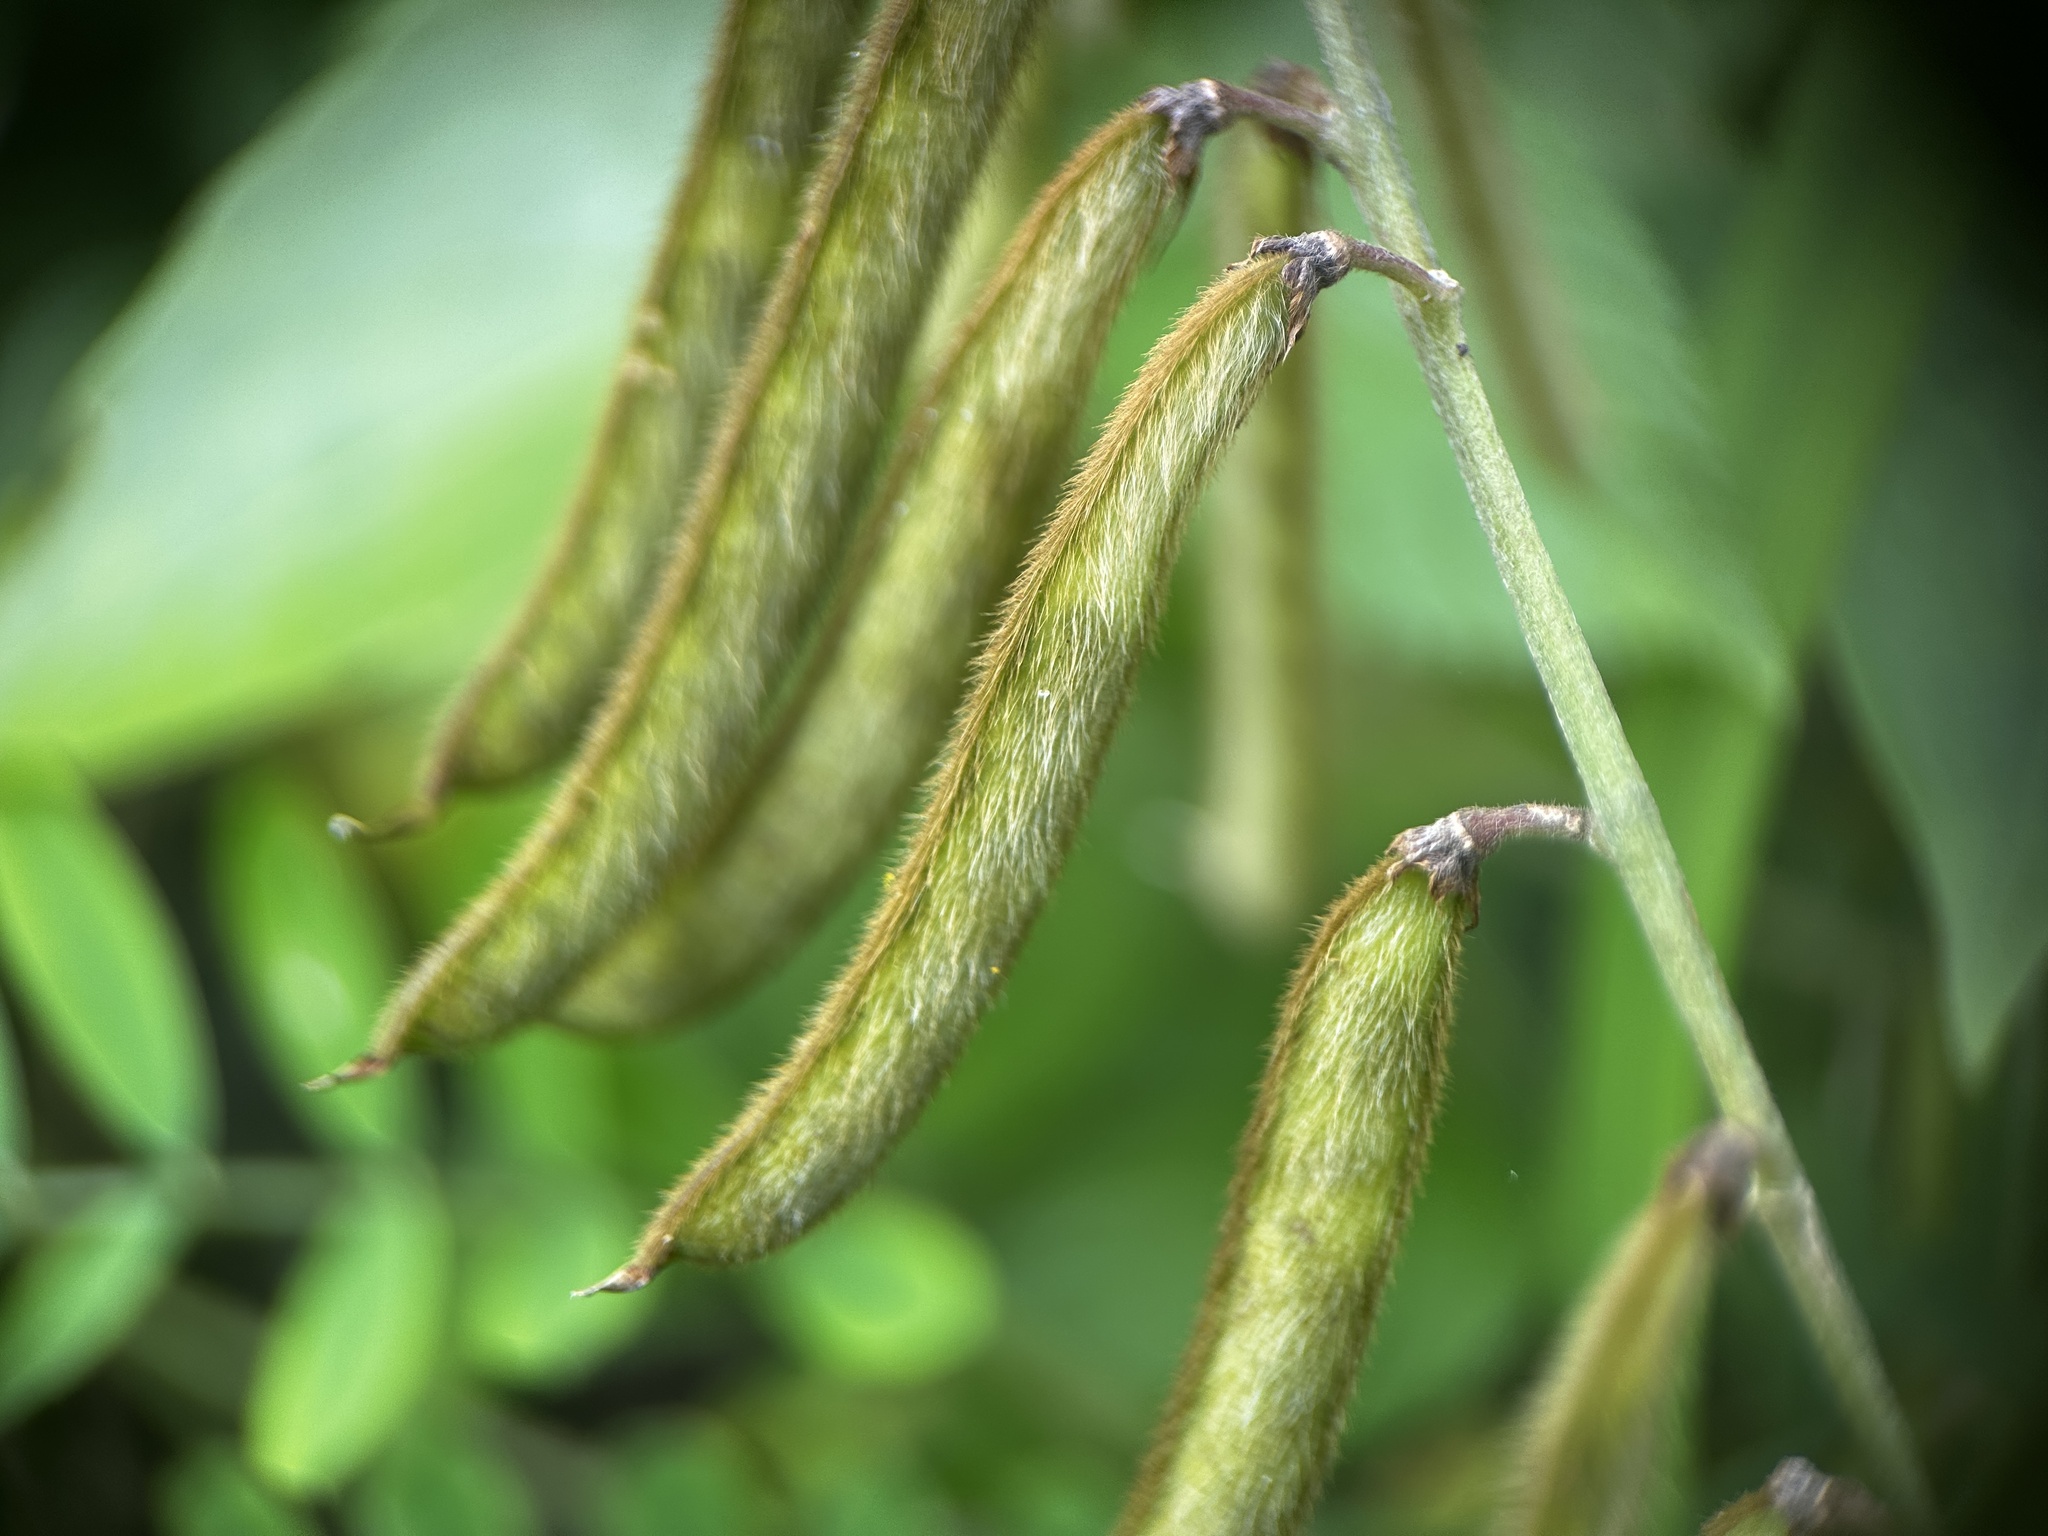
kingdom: Plantae
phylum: Tracheophyta
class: Magnoliopsida
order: Fabales
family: Fabaceae
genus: Tephrosia
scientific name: Tephrosia noctiflora
